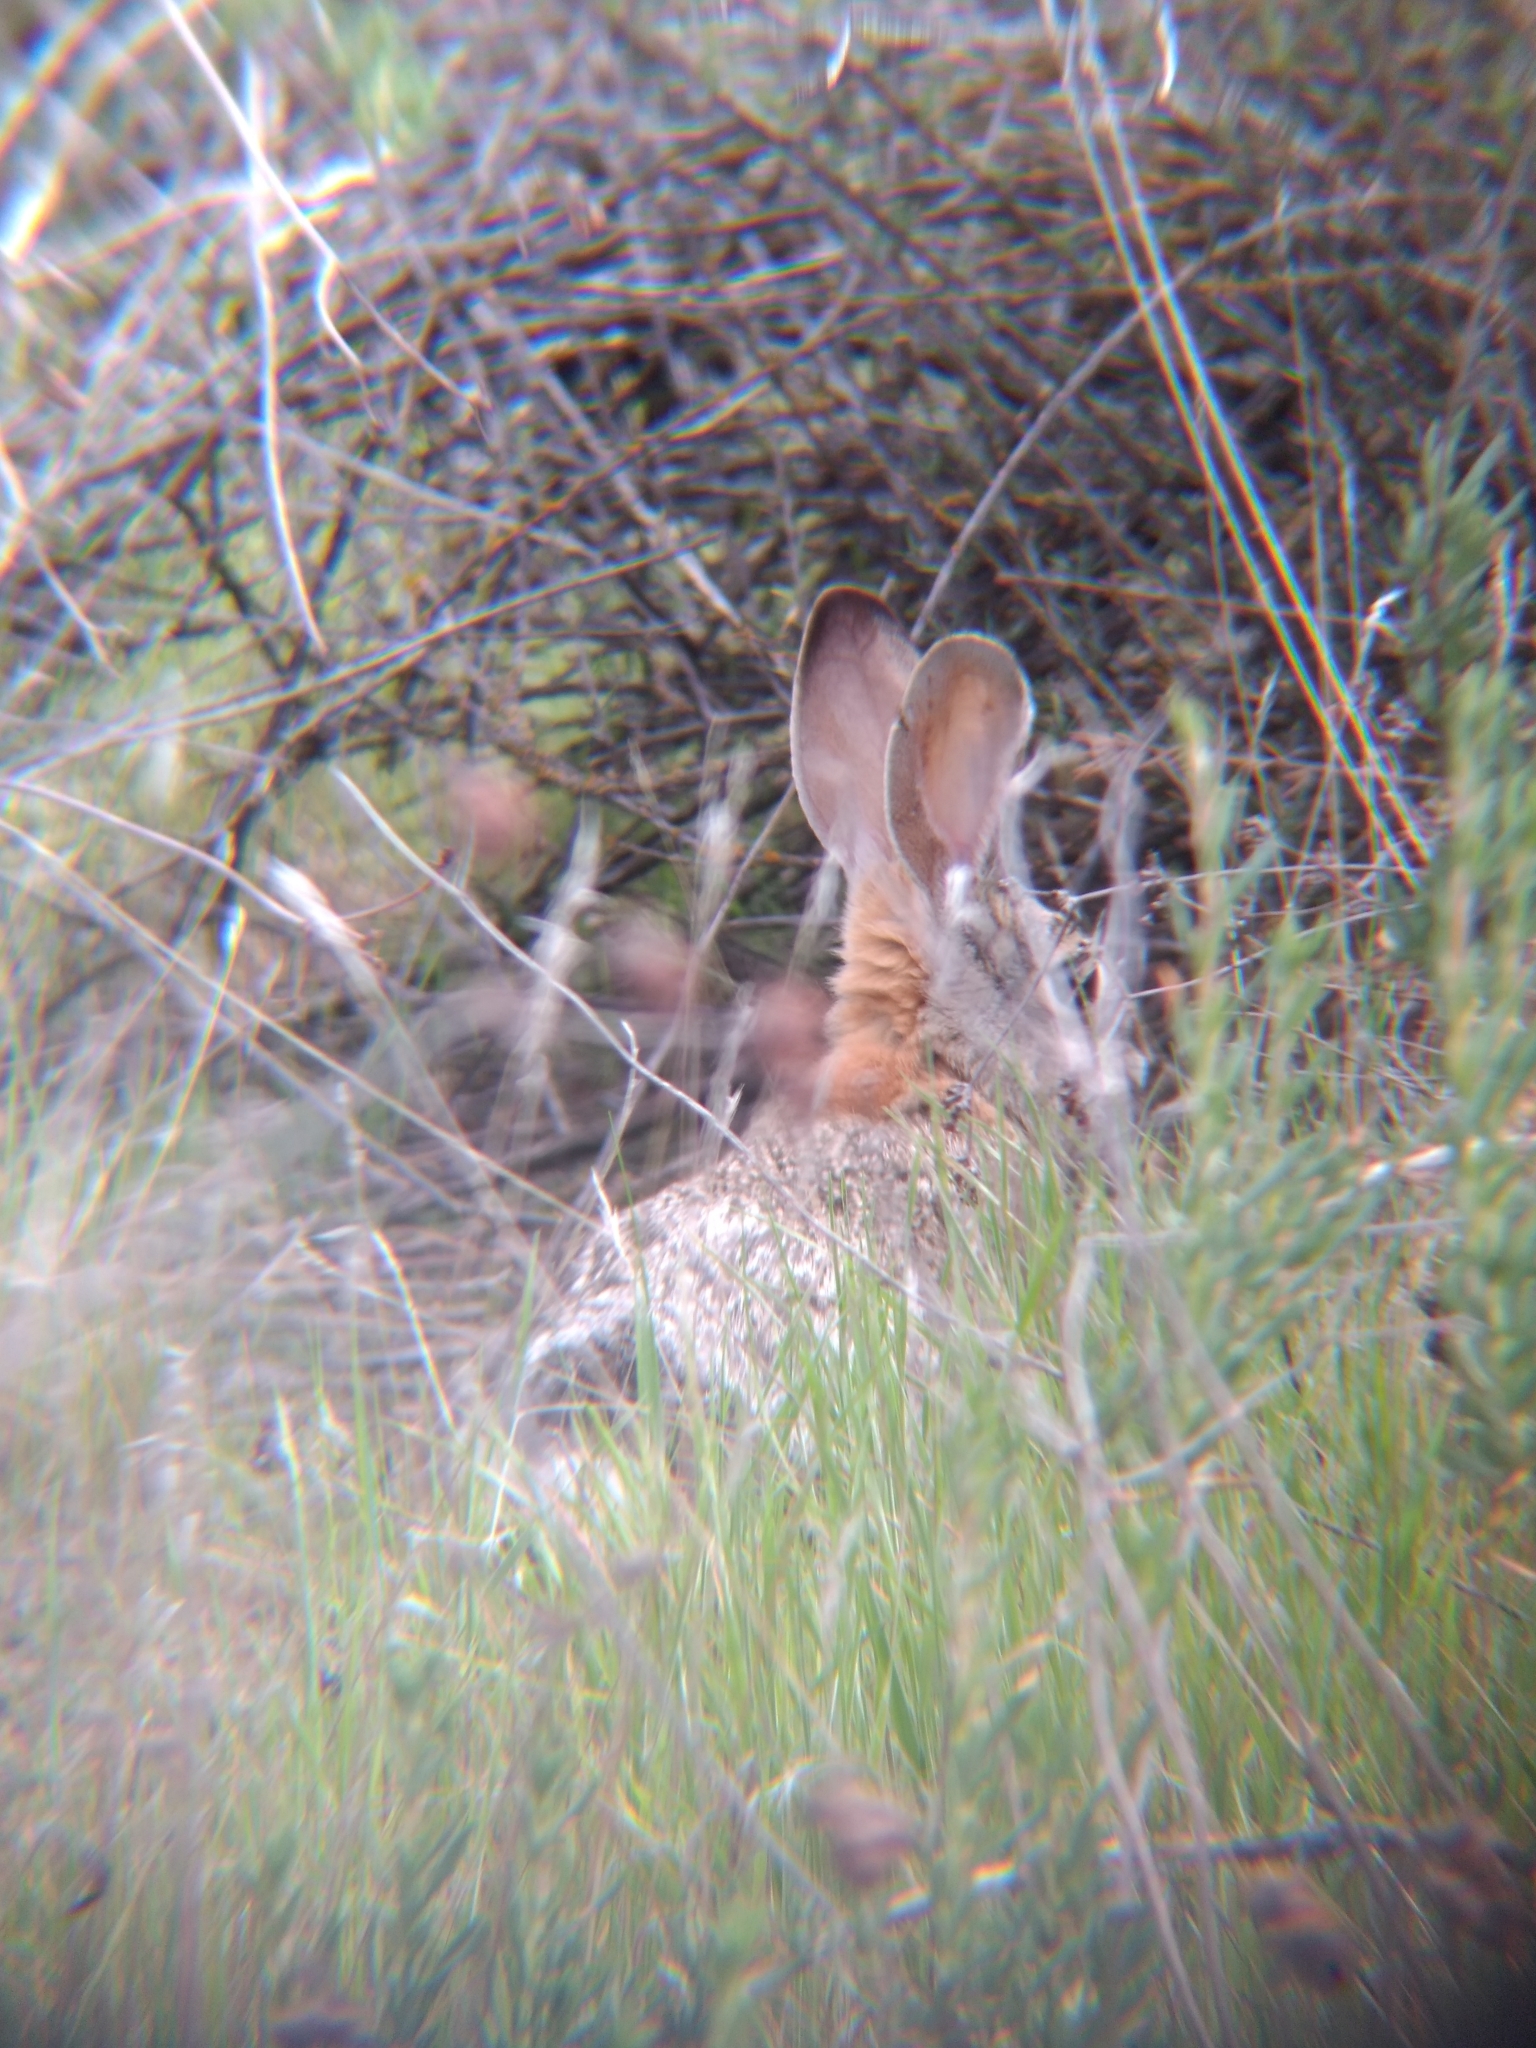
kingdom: Animalia
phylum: Chordata
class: Mammalia
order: Lagomorpha
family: Leporidae
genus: Sylvilagus
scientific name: Sylvilagus audubonii
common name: Desert cottontail
